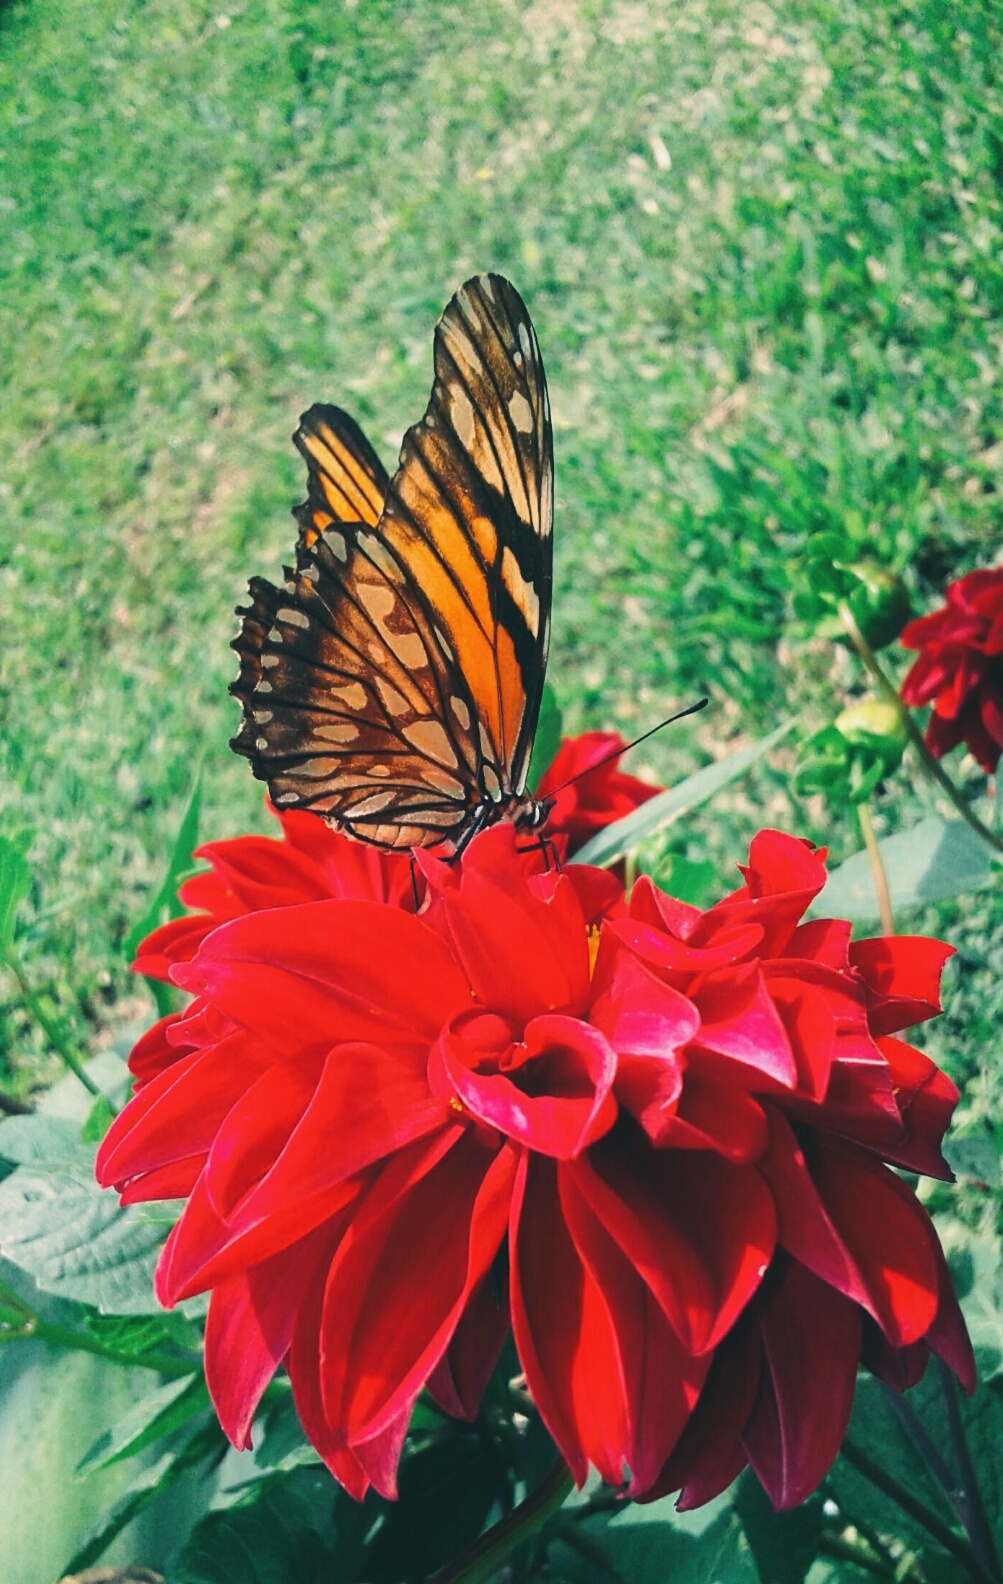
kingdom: Animalia
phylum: Arthropoda
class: Insecta
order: Lepidoptera
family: Nymphalidae
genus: Dione
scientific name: Dione juno
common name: Juno silverspot
